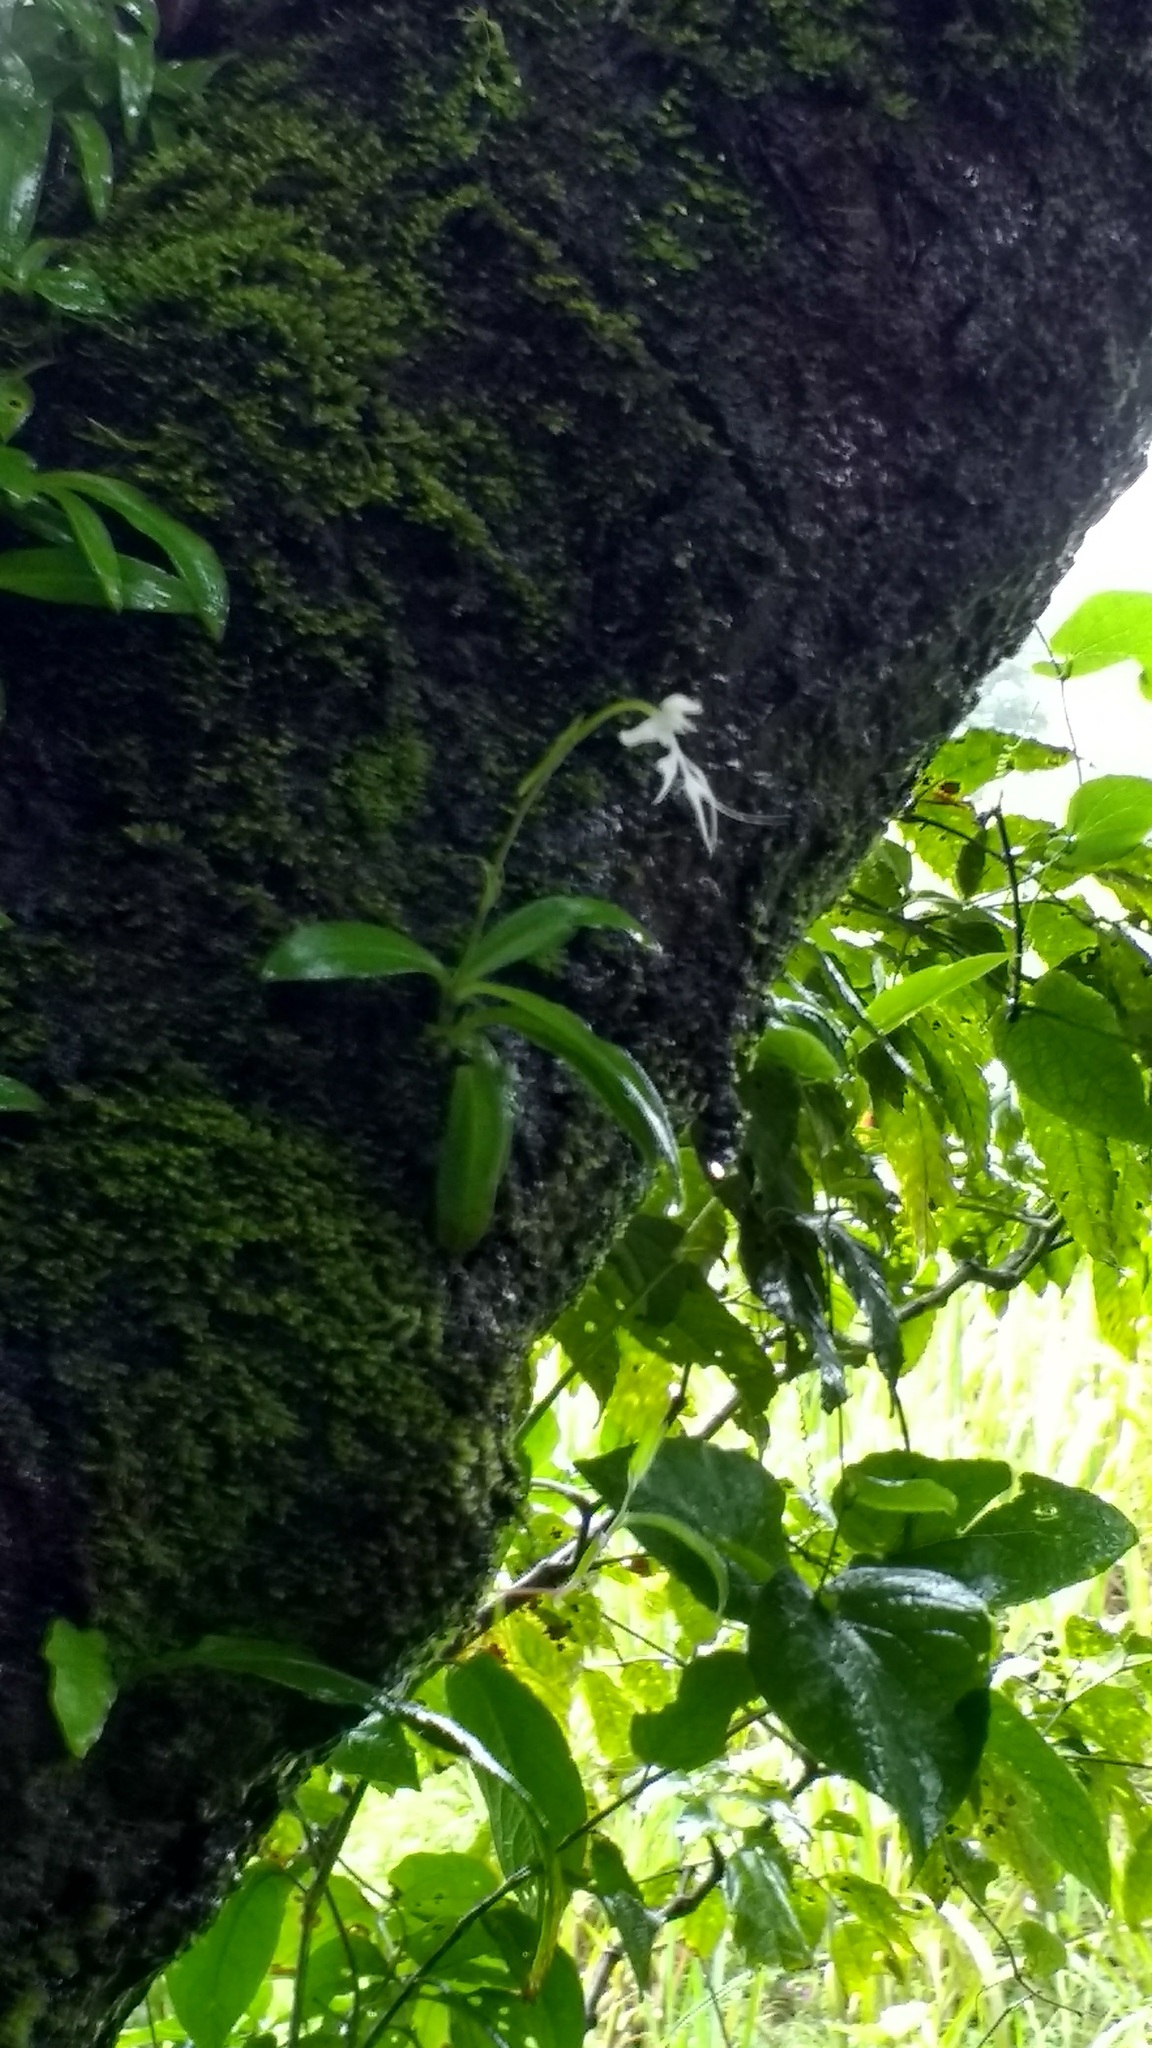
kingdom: Plantae
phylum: Tracheophyta
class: Liliopsida
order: Asparagales
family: Orchidaceae
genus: Habenaria
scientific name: Habenaria crinifera
